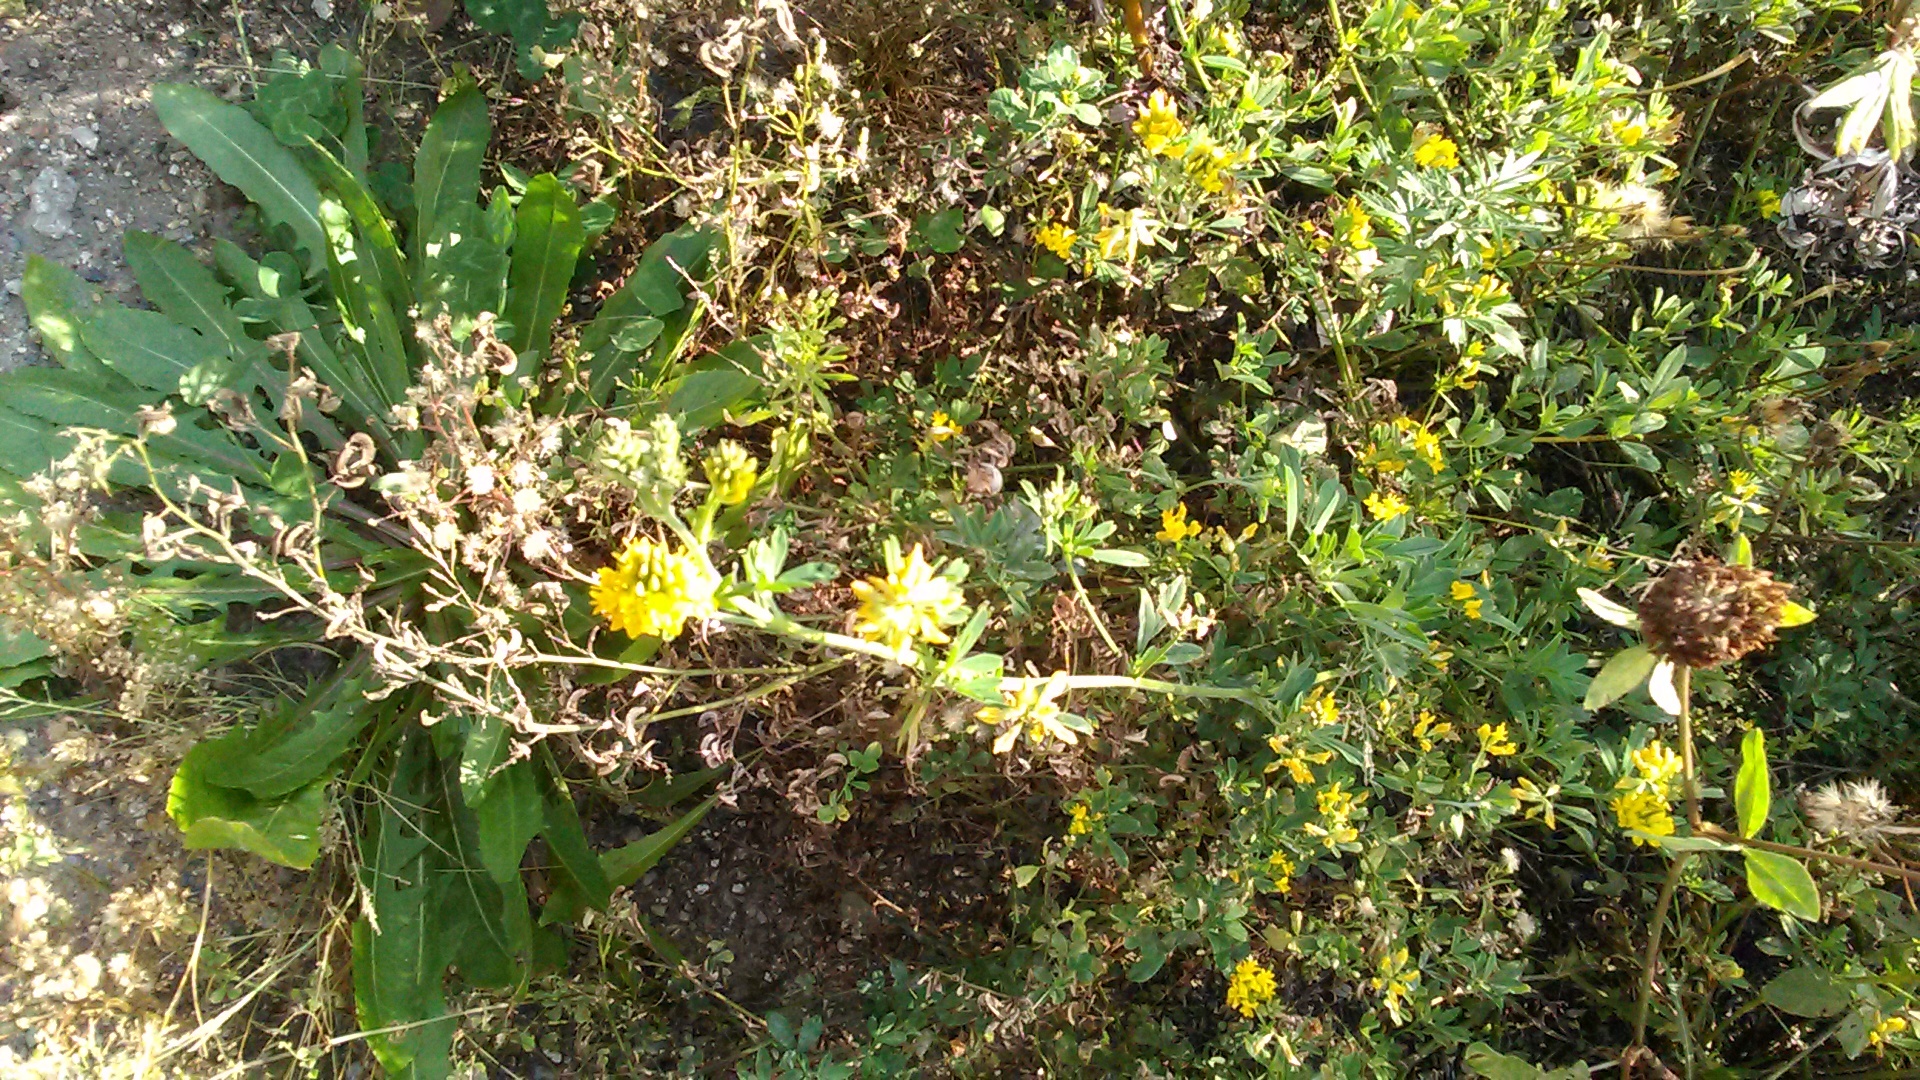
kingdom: Plantae
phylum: Tracheophyta
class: Magnoliopsida
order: Fabales
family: Fabaceae
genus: Medicago
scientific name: Medicago falcata
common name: Sickle medick
